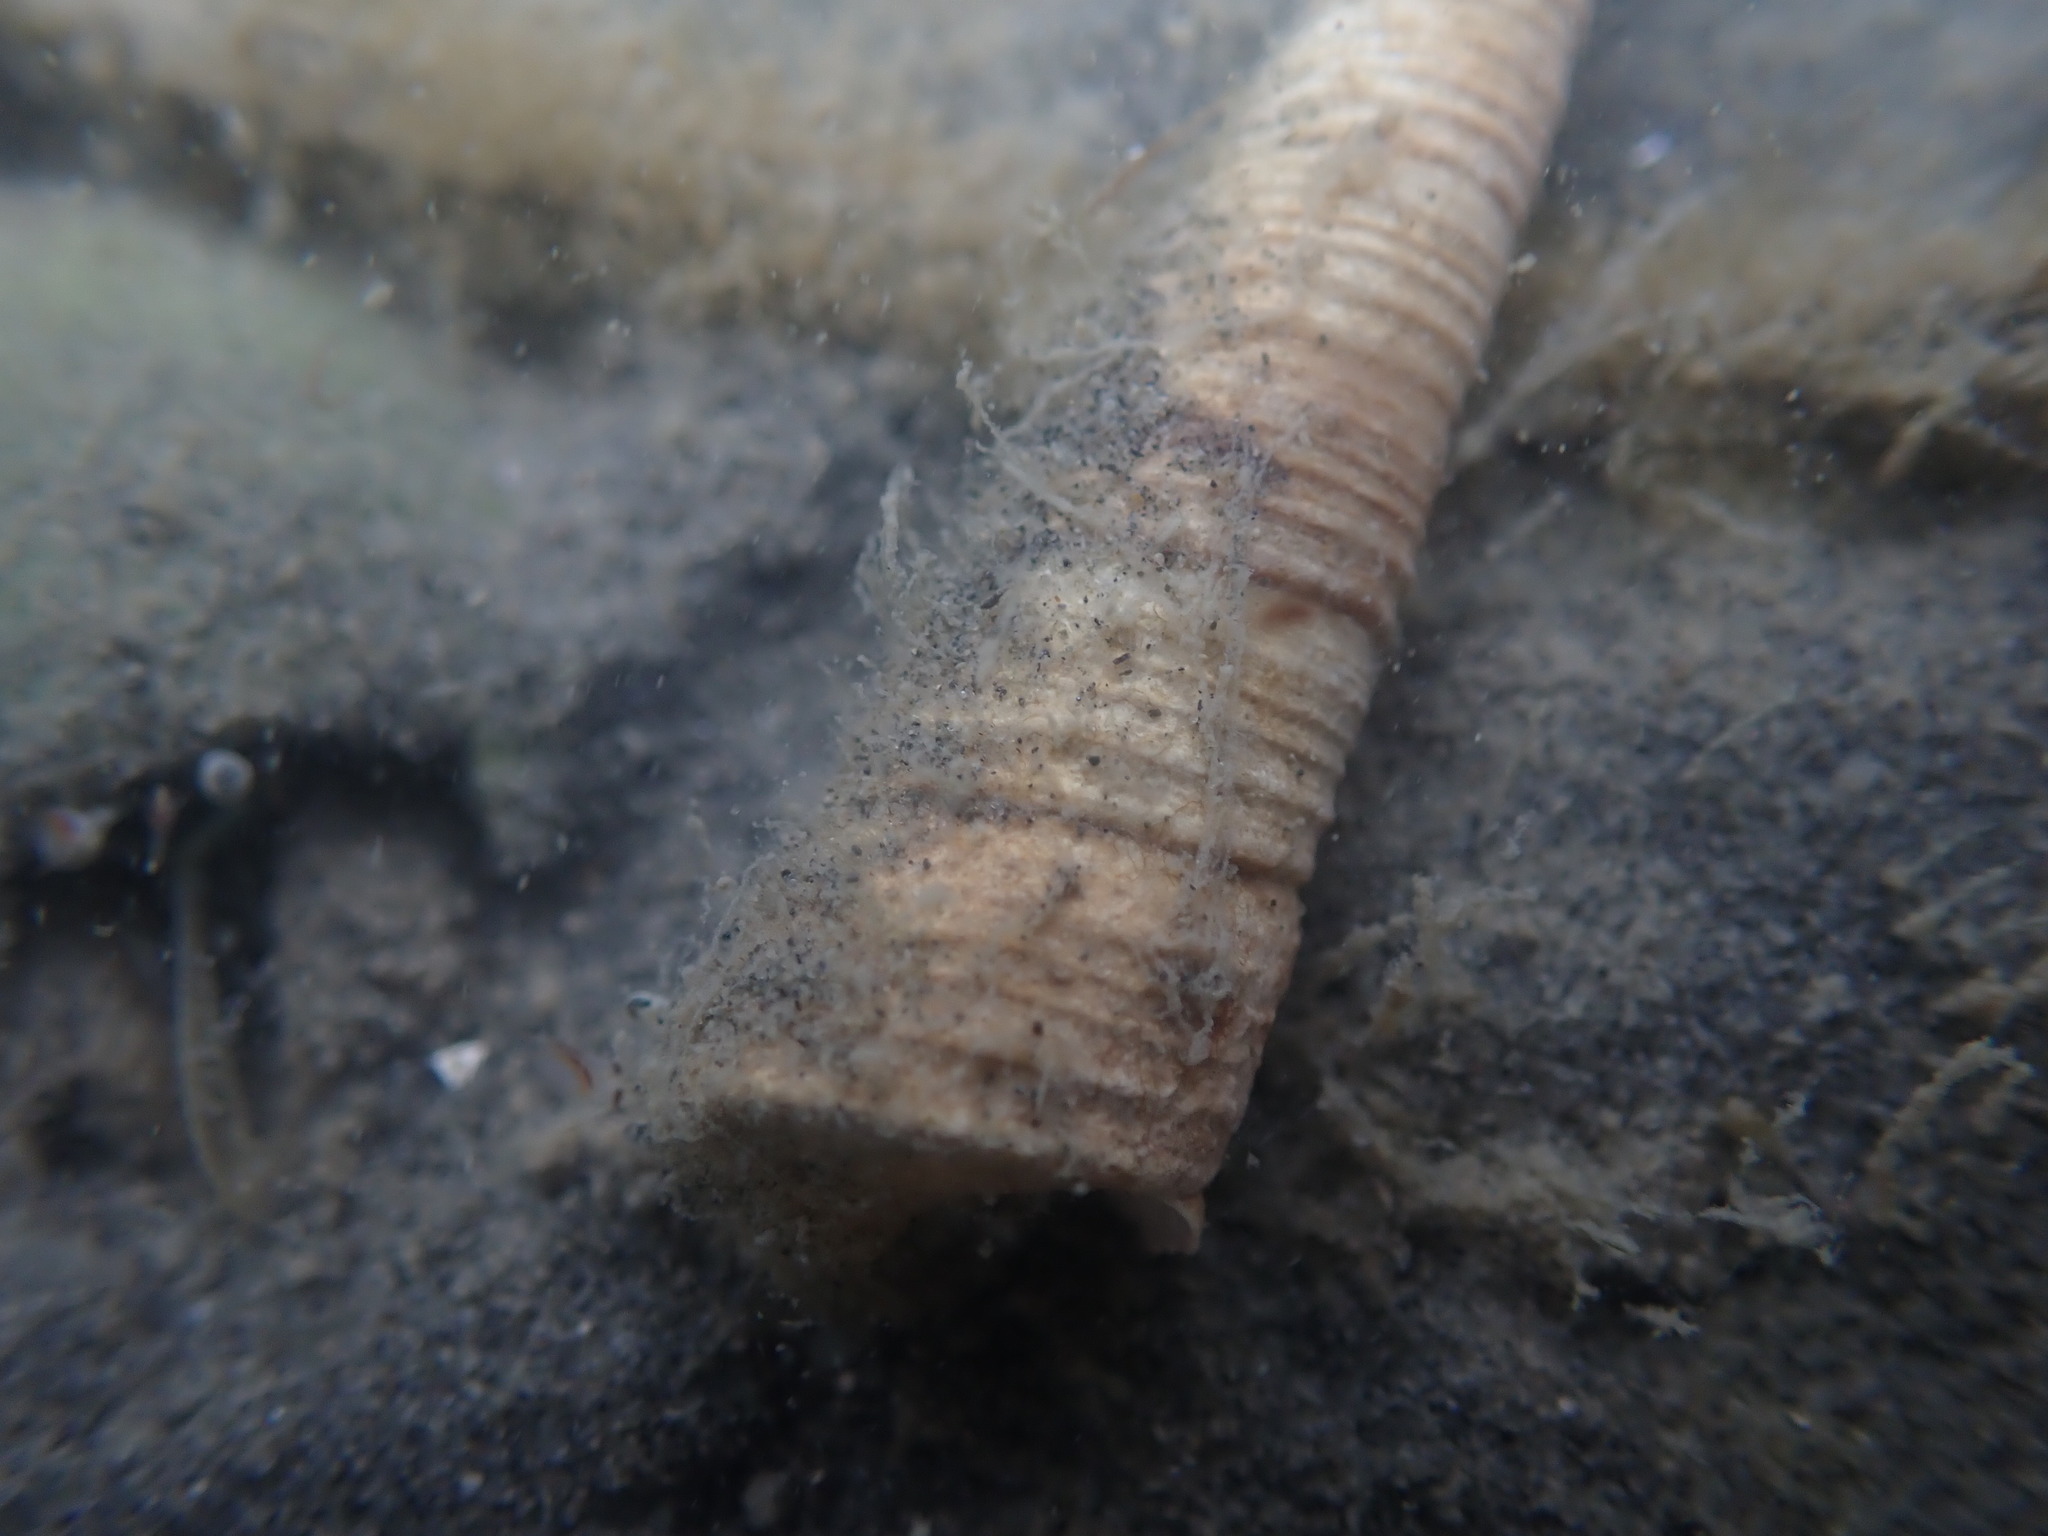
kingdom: Animalia
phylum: Mollusca
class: Gastropoda
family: Turritellidae
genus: Maoricolpus
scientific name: Maoricolpus roseus
